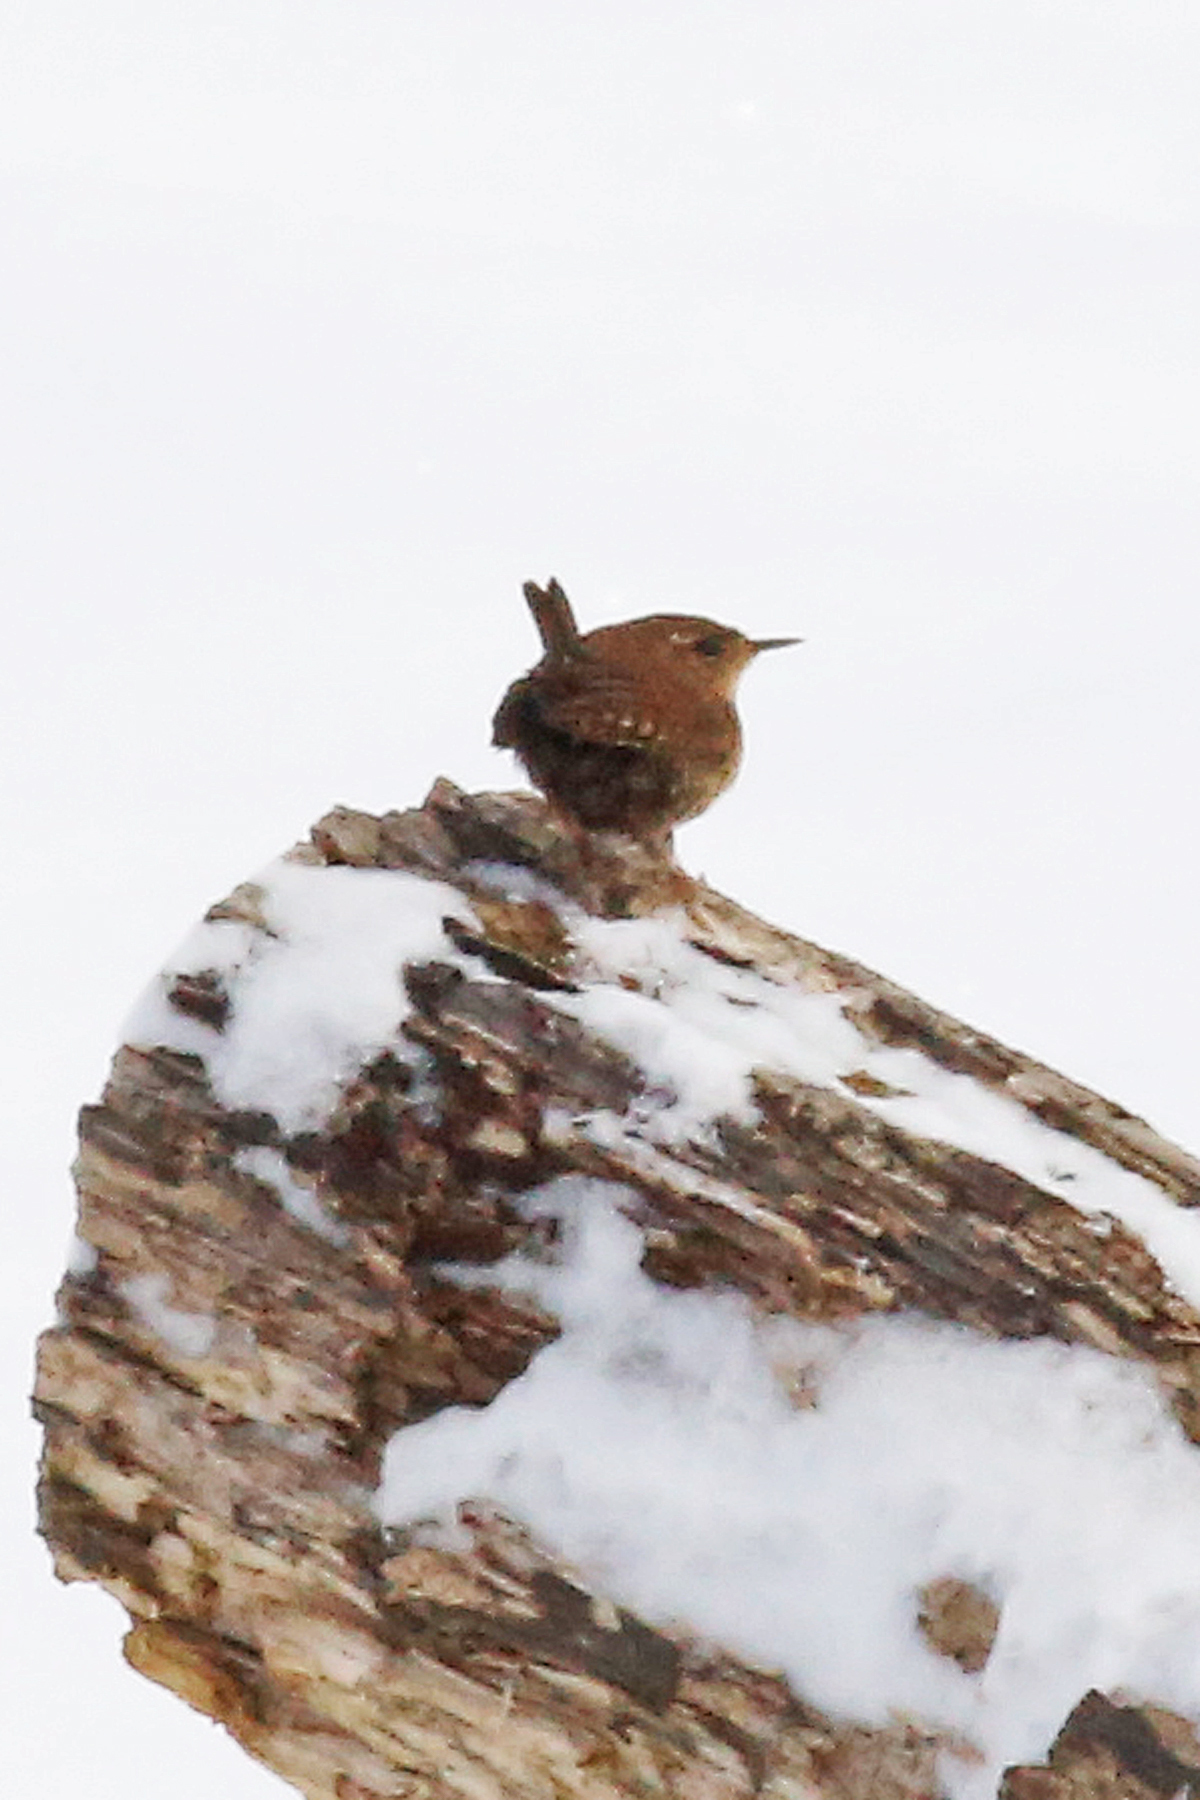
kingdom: Animalia
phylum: Chordata
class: Aves
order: Passeriformes
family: Troglodytidae
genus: Troglodytes
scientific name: Troglodytes hiemalis
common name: Winter wren
